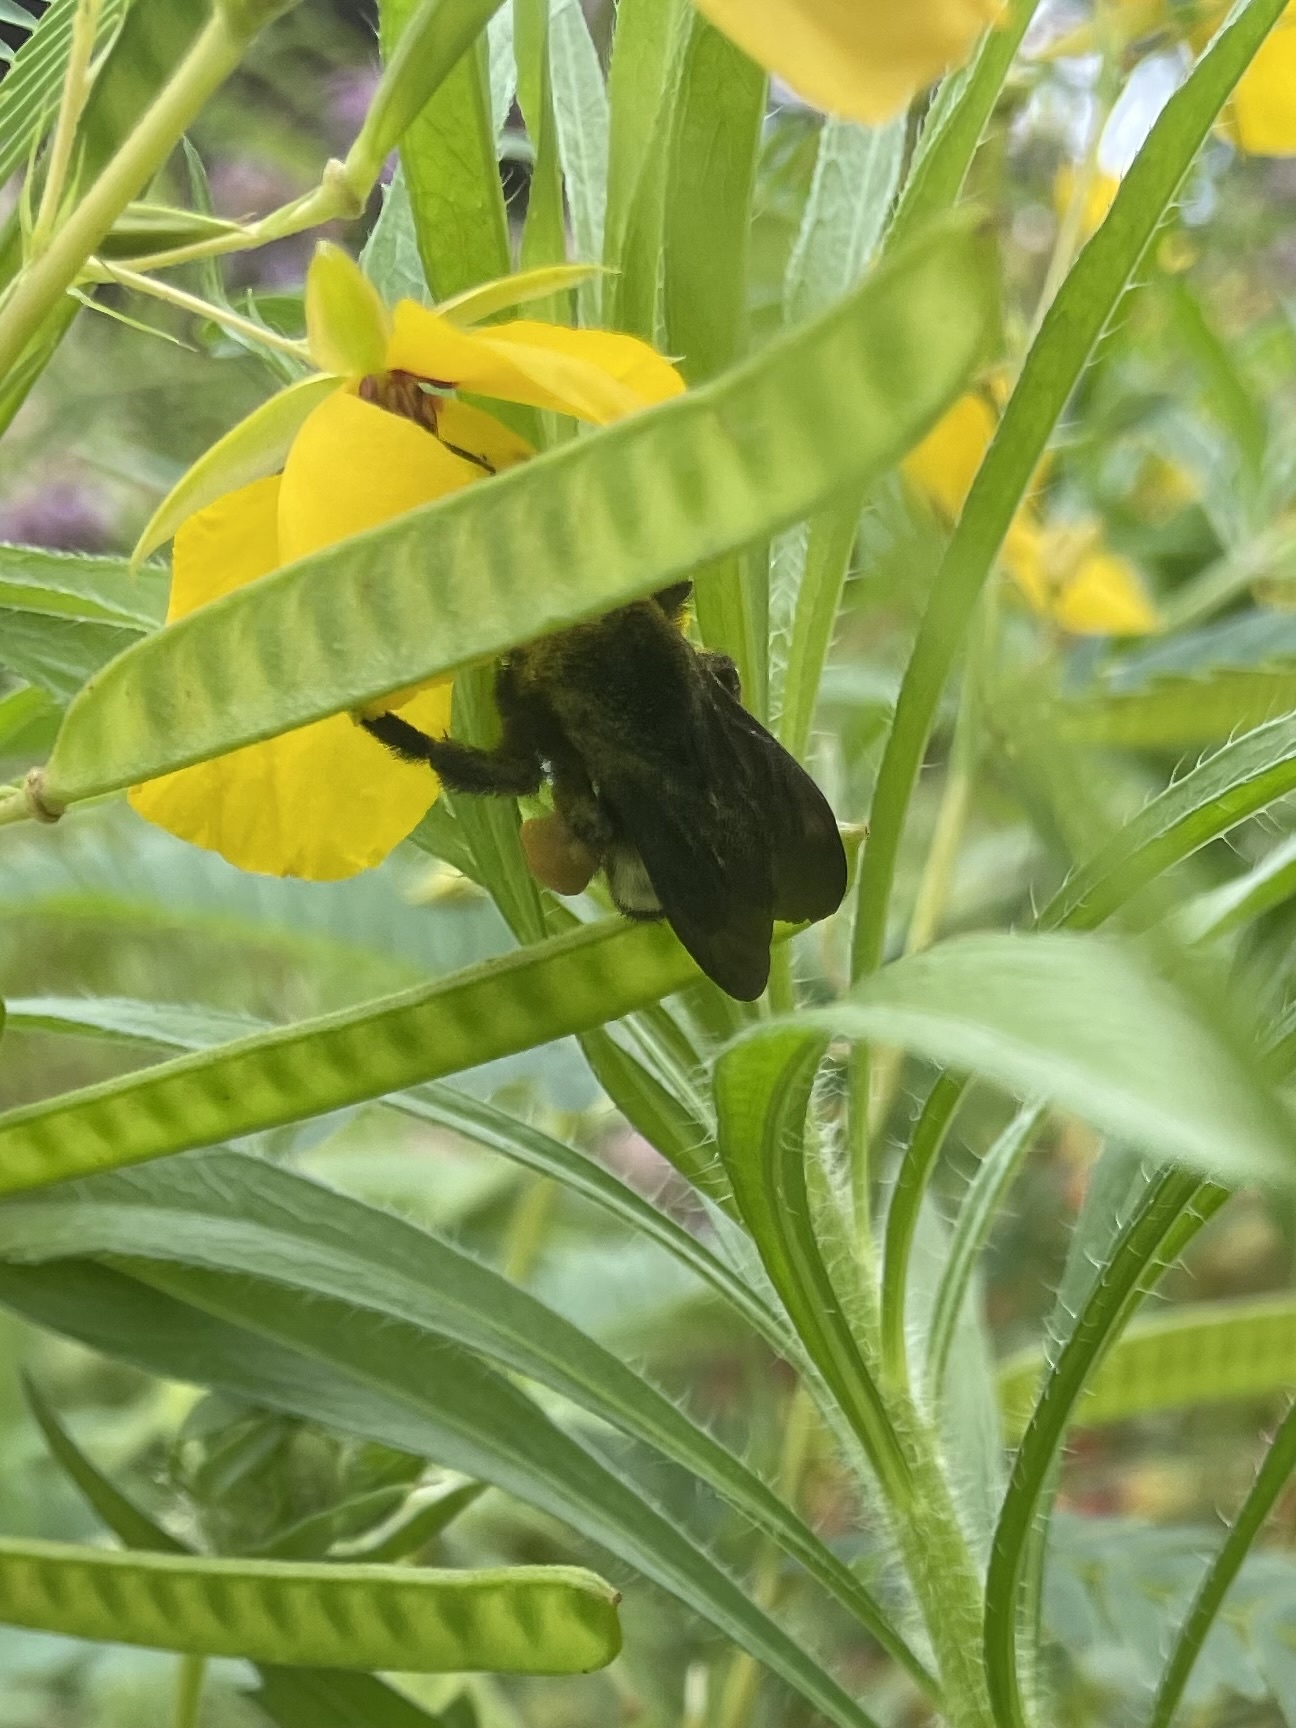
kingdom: Animalia
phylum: Arthropoda
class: Insecta
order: Hymenoptera
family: Apidae
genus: Bombus
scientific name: Bombus pensylvanicus
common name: Bumble bee
